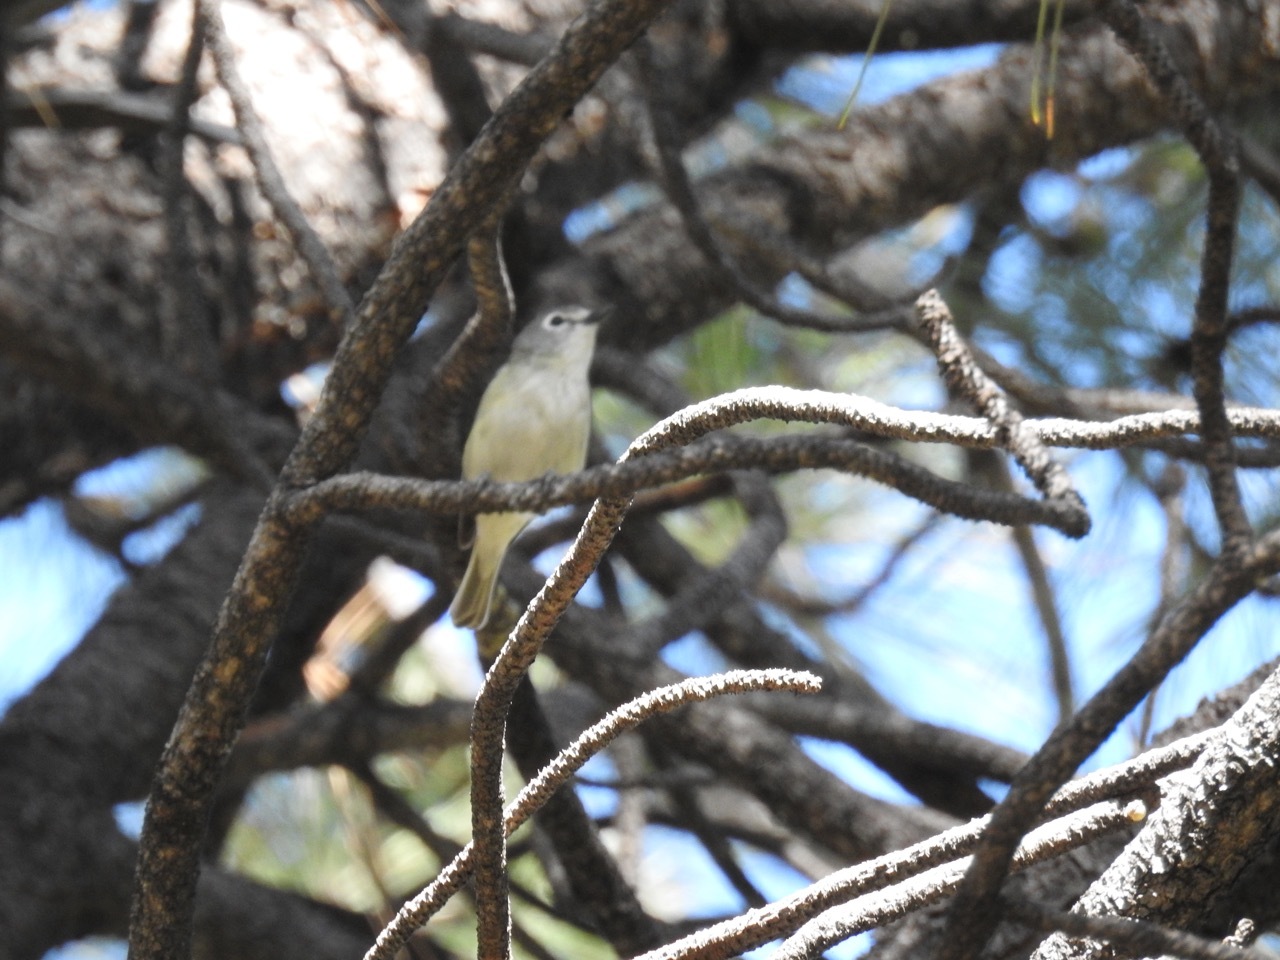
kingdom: Animalia
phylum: Chordata
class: Aves
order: Passeriformes
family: Vireonidae
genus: Vireo
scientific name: Vireo cassinii
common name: Cassin's vireo
